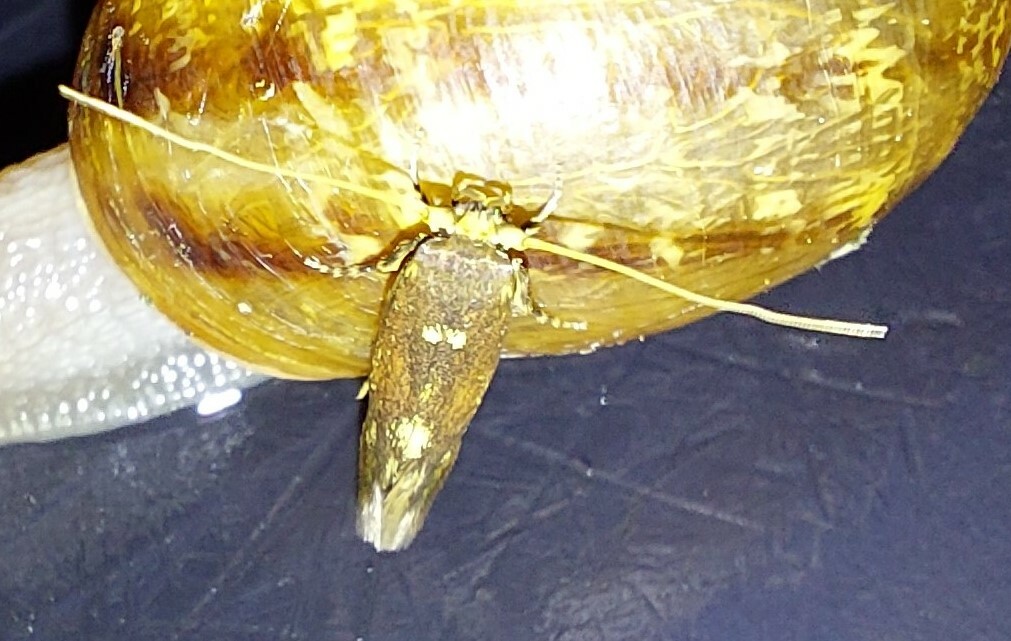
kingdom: Animalia
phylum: Arthropoda
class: Insecta
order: Lepidoptera
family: Tineidae
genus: Opogona
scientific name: Opogona omoscopa
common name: Moth
